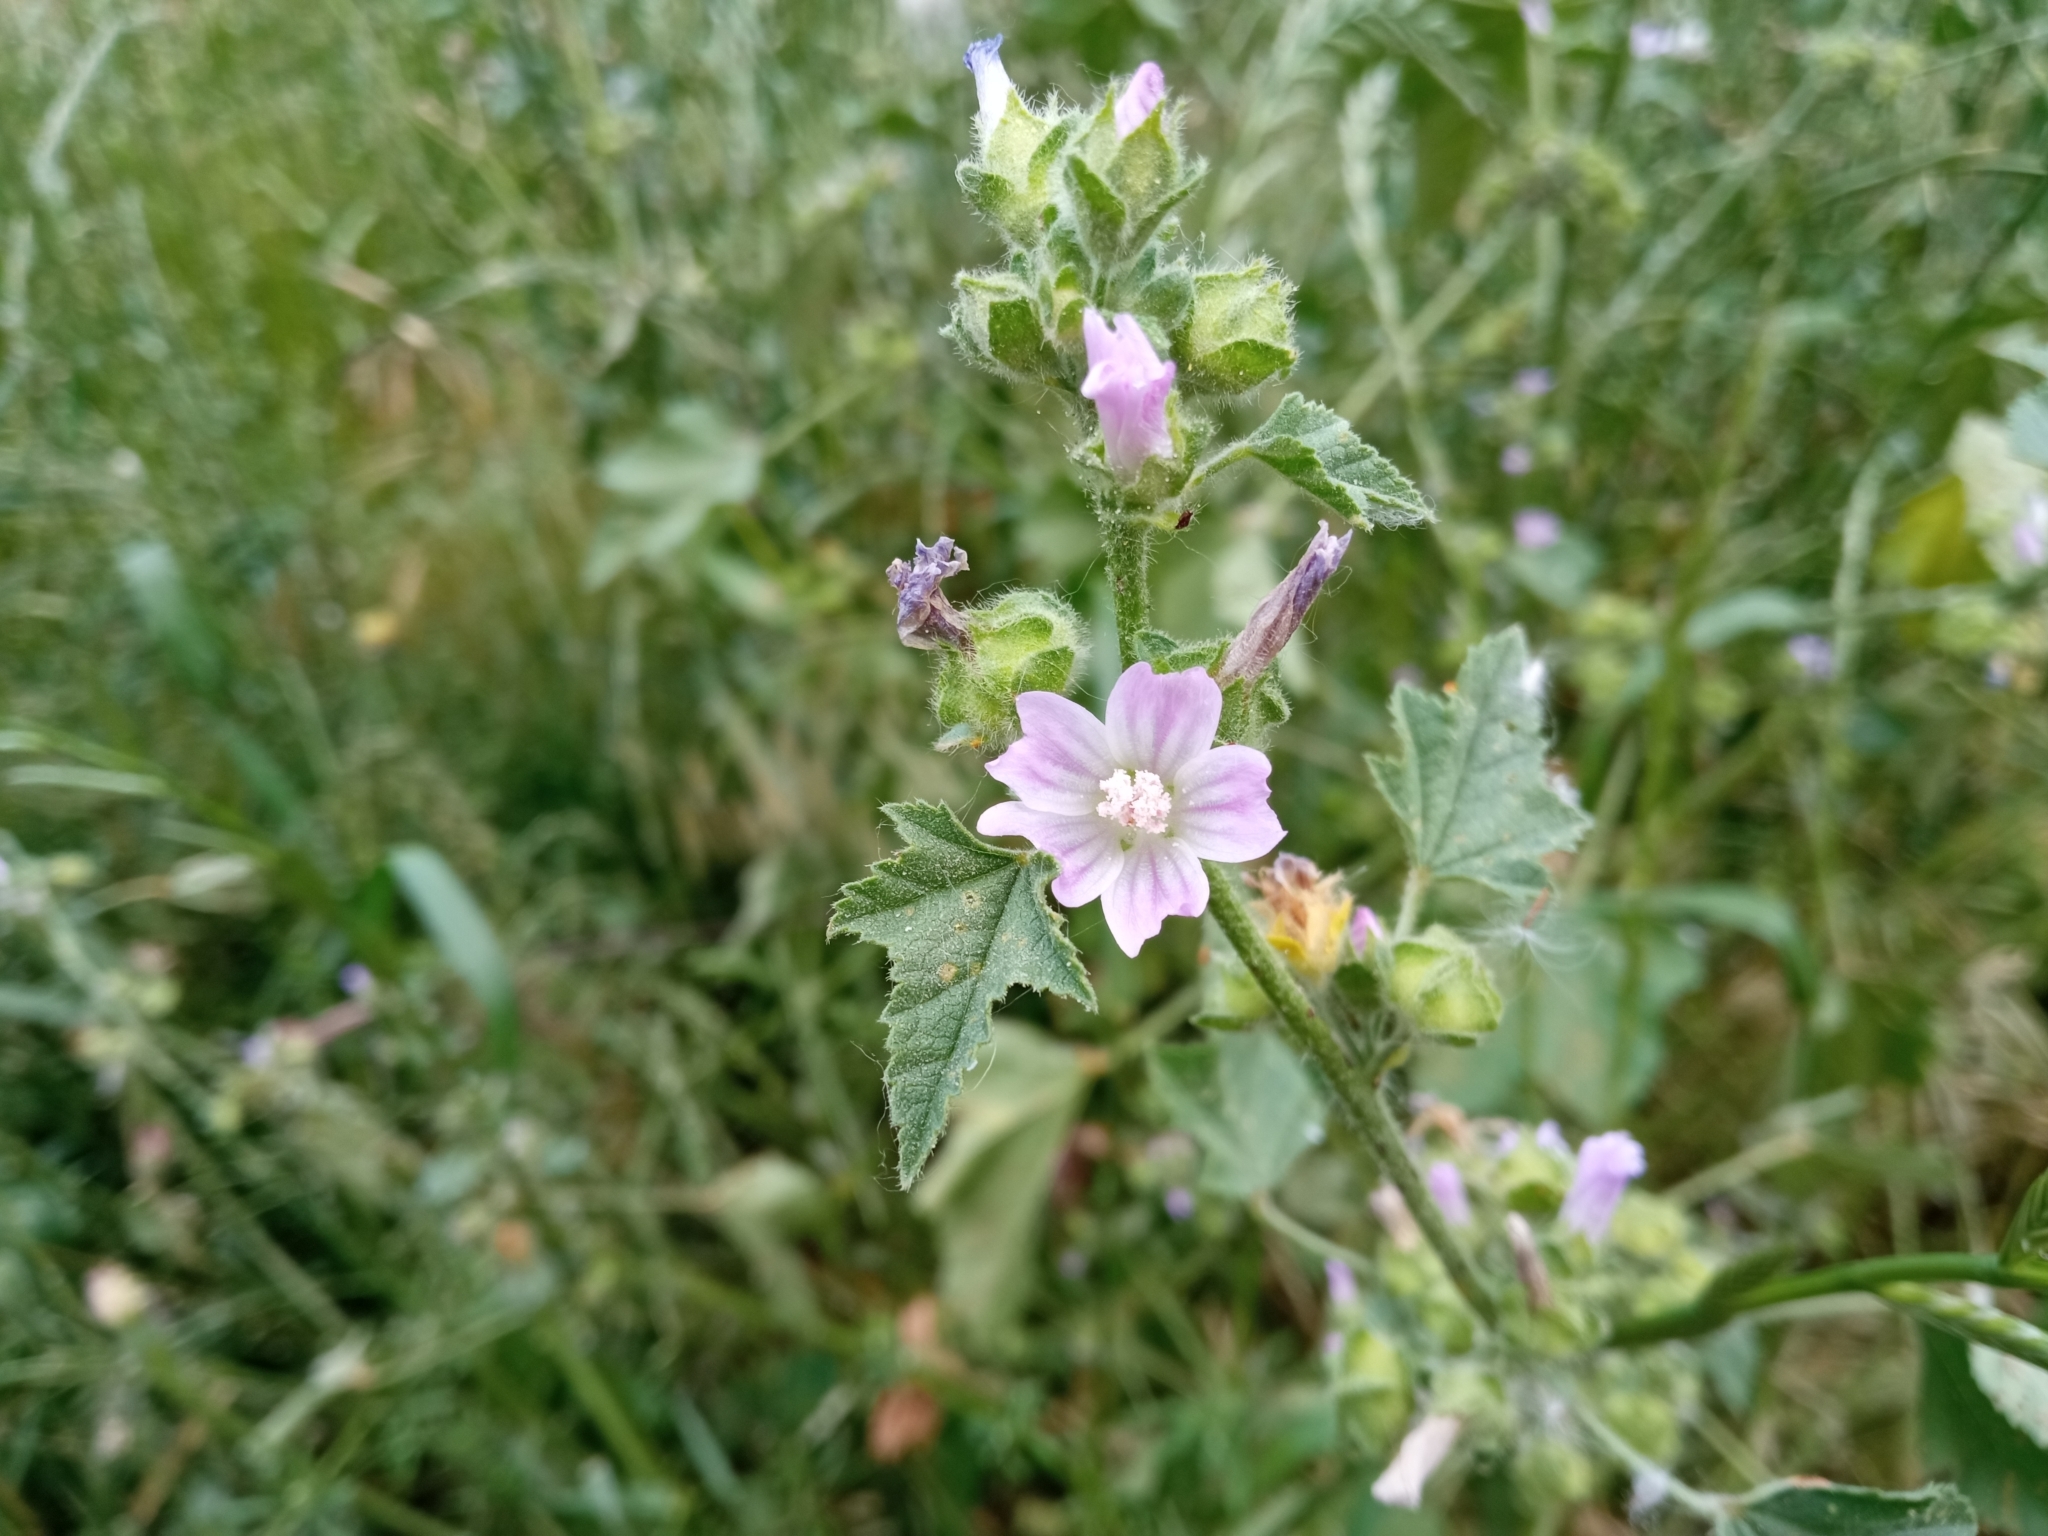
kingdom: Plantae
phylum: Tracheophyta
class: Magnoliopsida
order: Malvales
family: Malvaceae
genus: Malva
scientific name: Malva multiflora
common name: Cheeseweed
